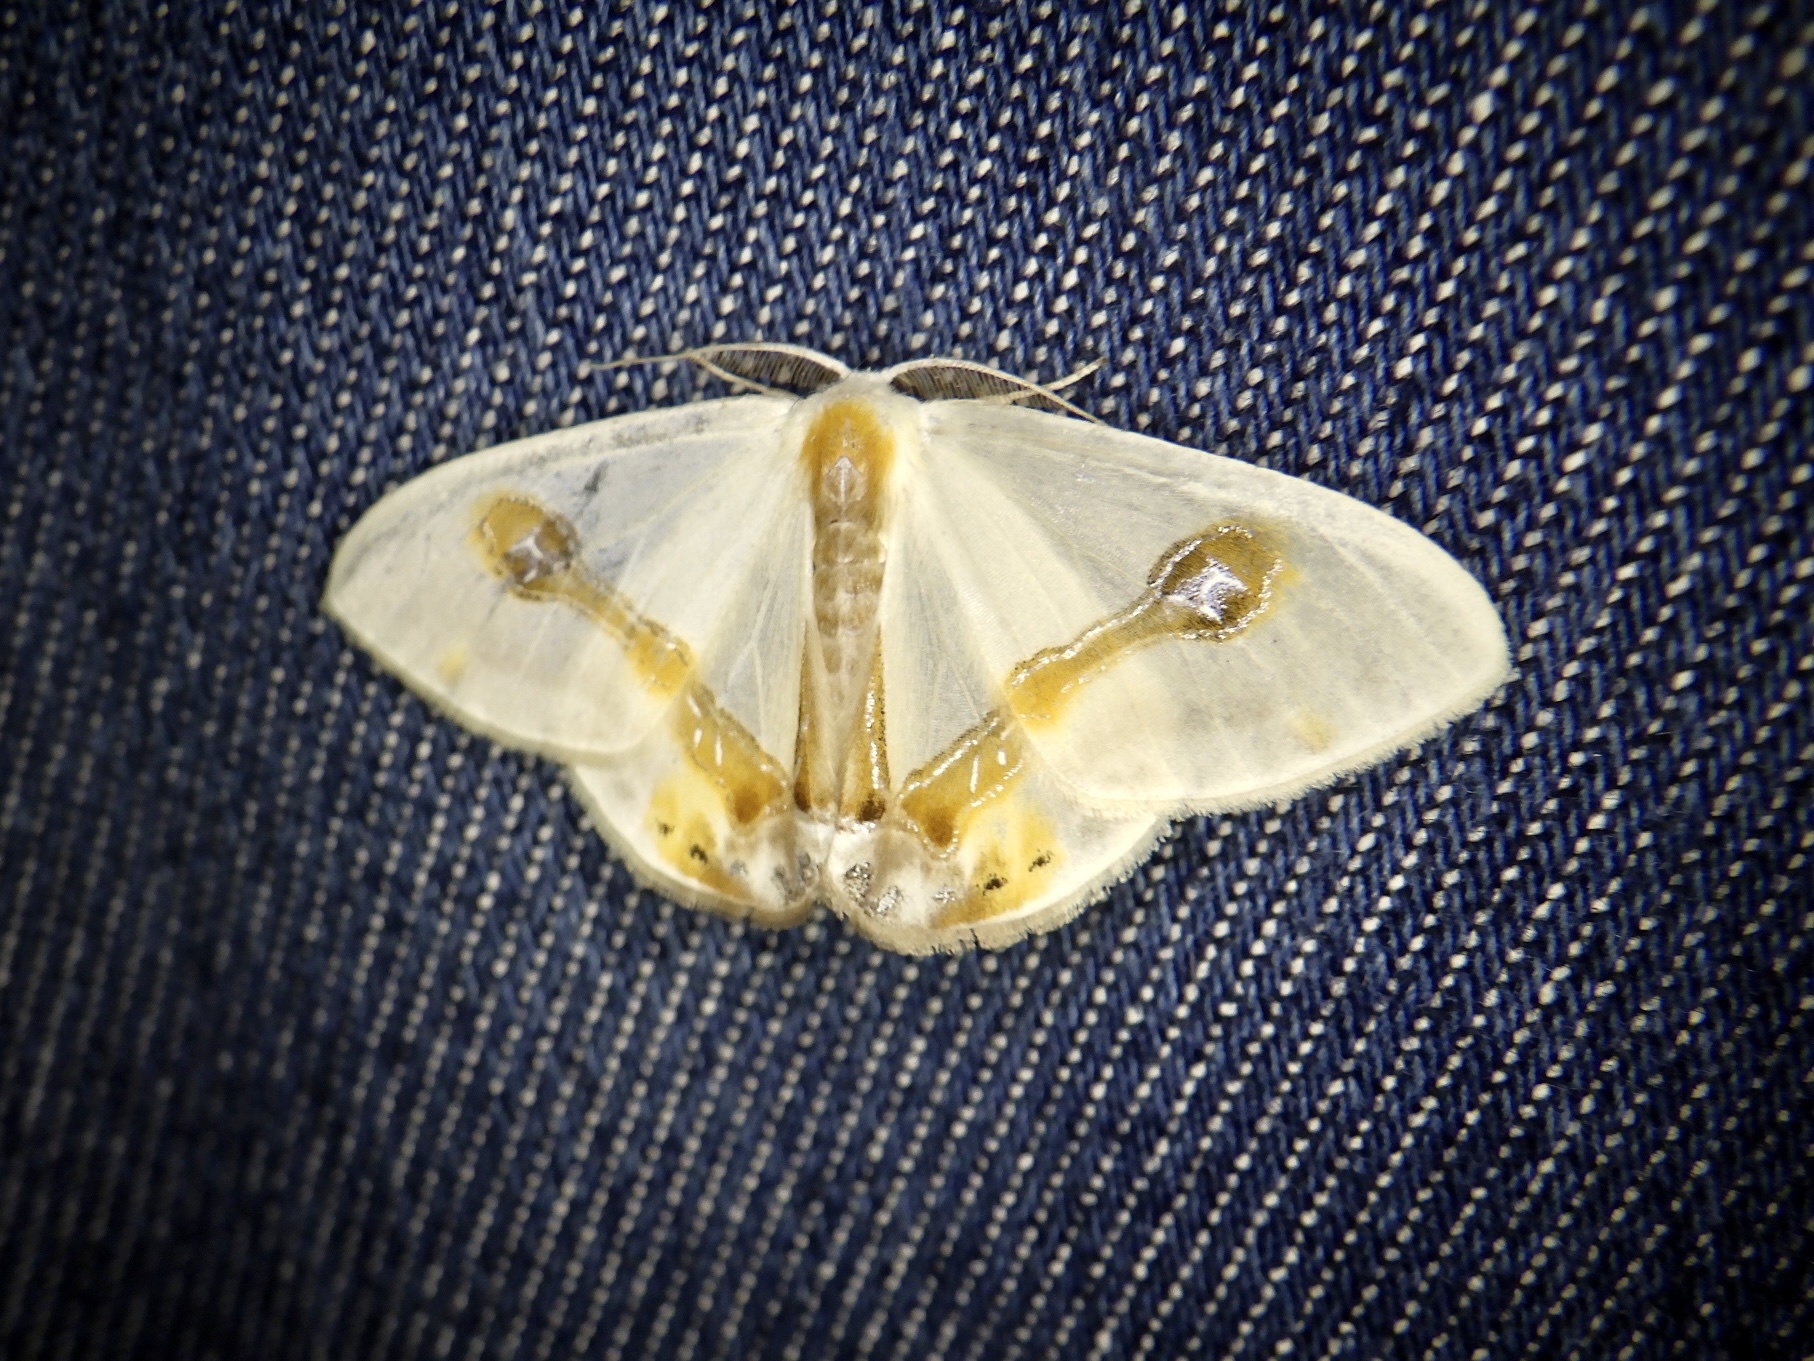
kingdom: Animalia
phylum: Arthropoda
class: Insecta
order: Lepidoptera
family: Drepanidae
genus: Macrocilix
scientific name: Macrocilix mysticata
